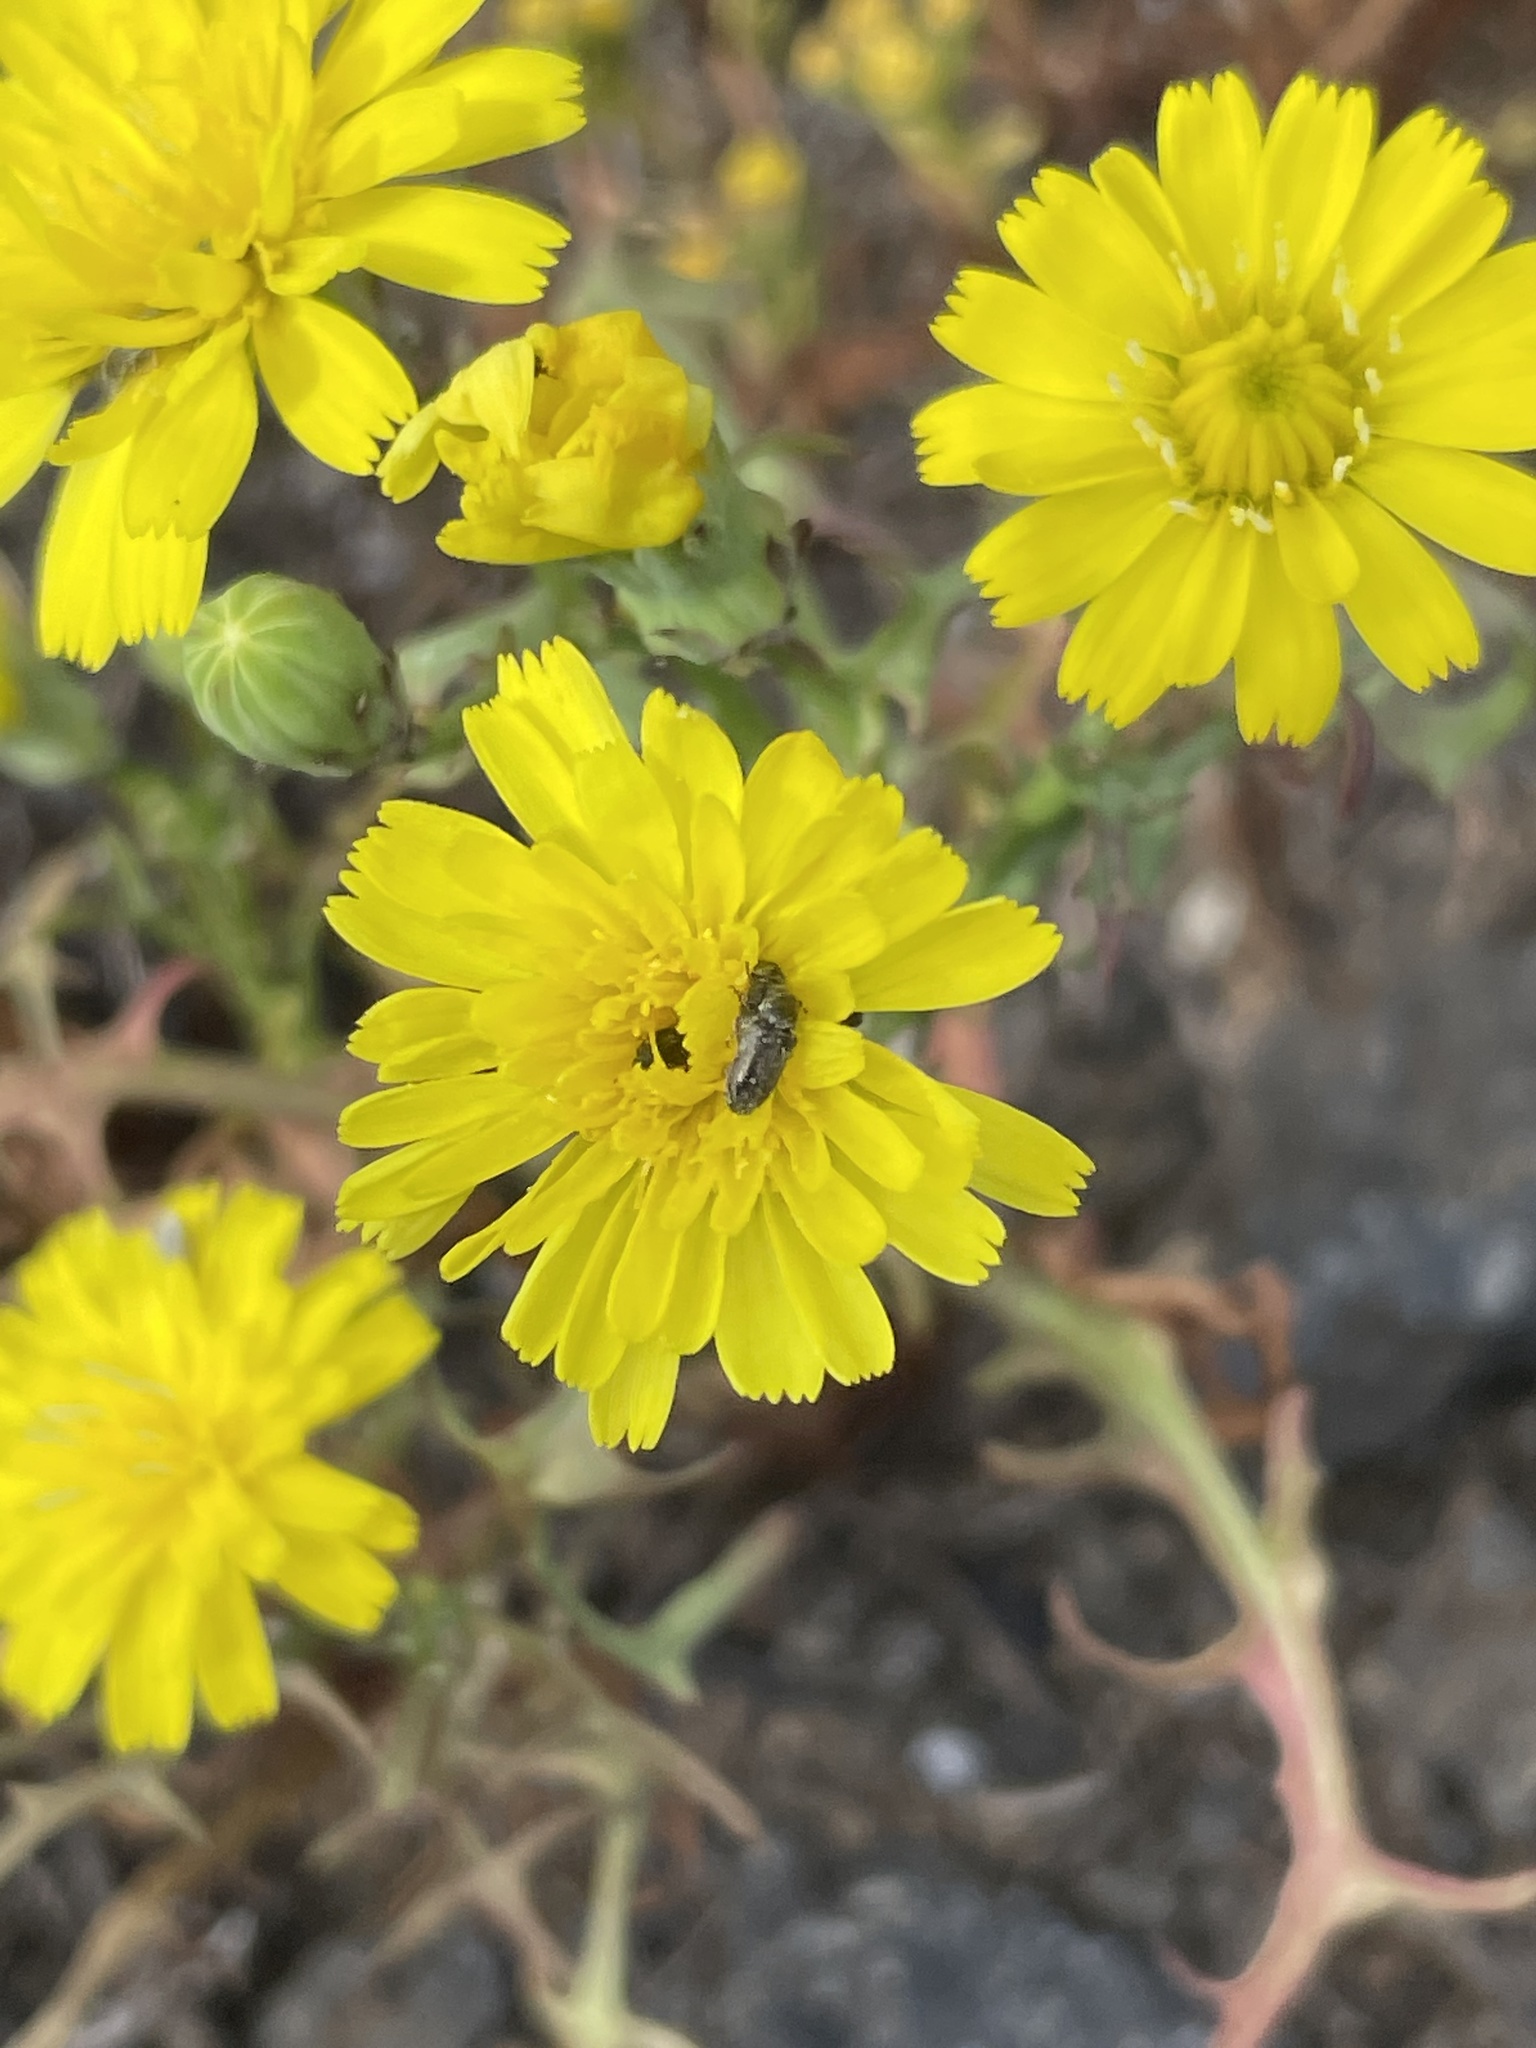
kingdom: Plantae
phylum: Tracheophyta
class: Magnoliopsida
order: Asterales
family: Asteraceae
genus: Malacothrix
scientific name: Malacothrix foliosa
